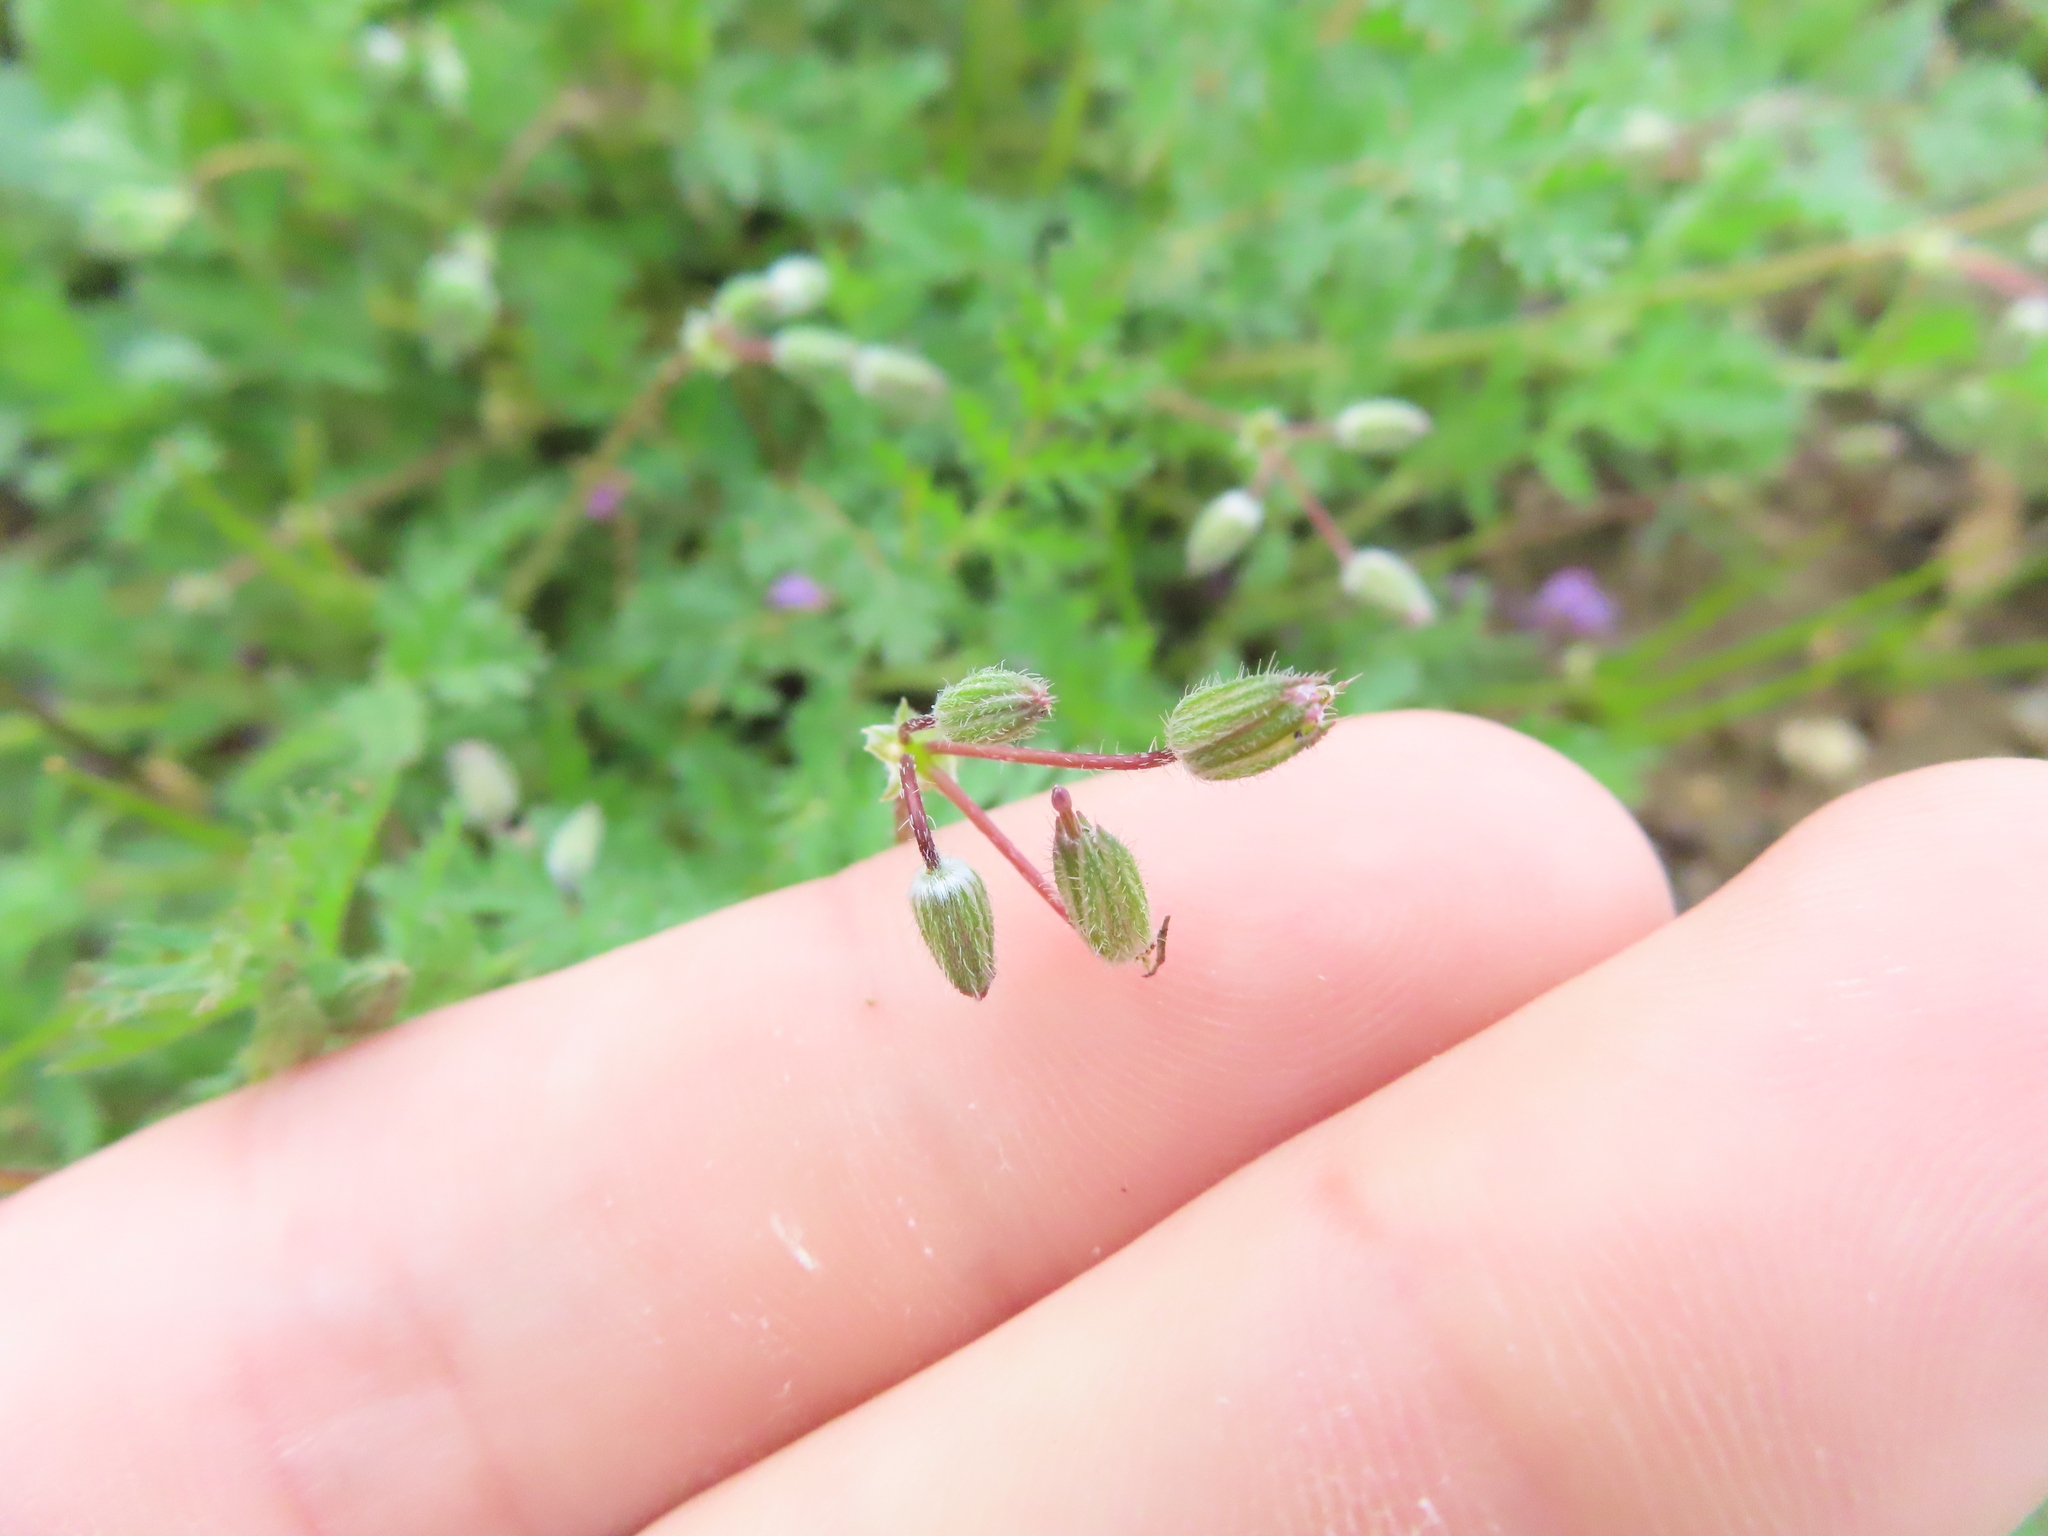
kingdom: Plantae
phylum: Tracheophyta
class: Magnoliopsida
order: Geraniales
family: Geraniaceae
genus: Erodium
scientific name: Erodium cicutarium
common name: Common stork's-bill
